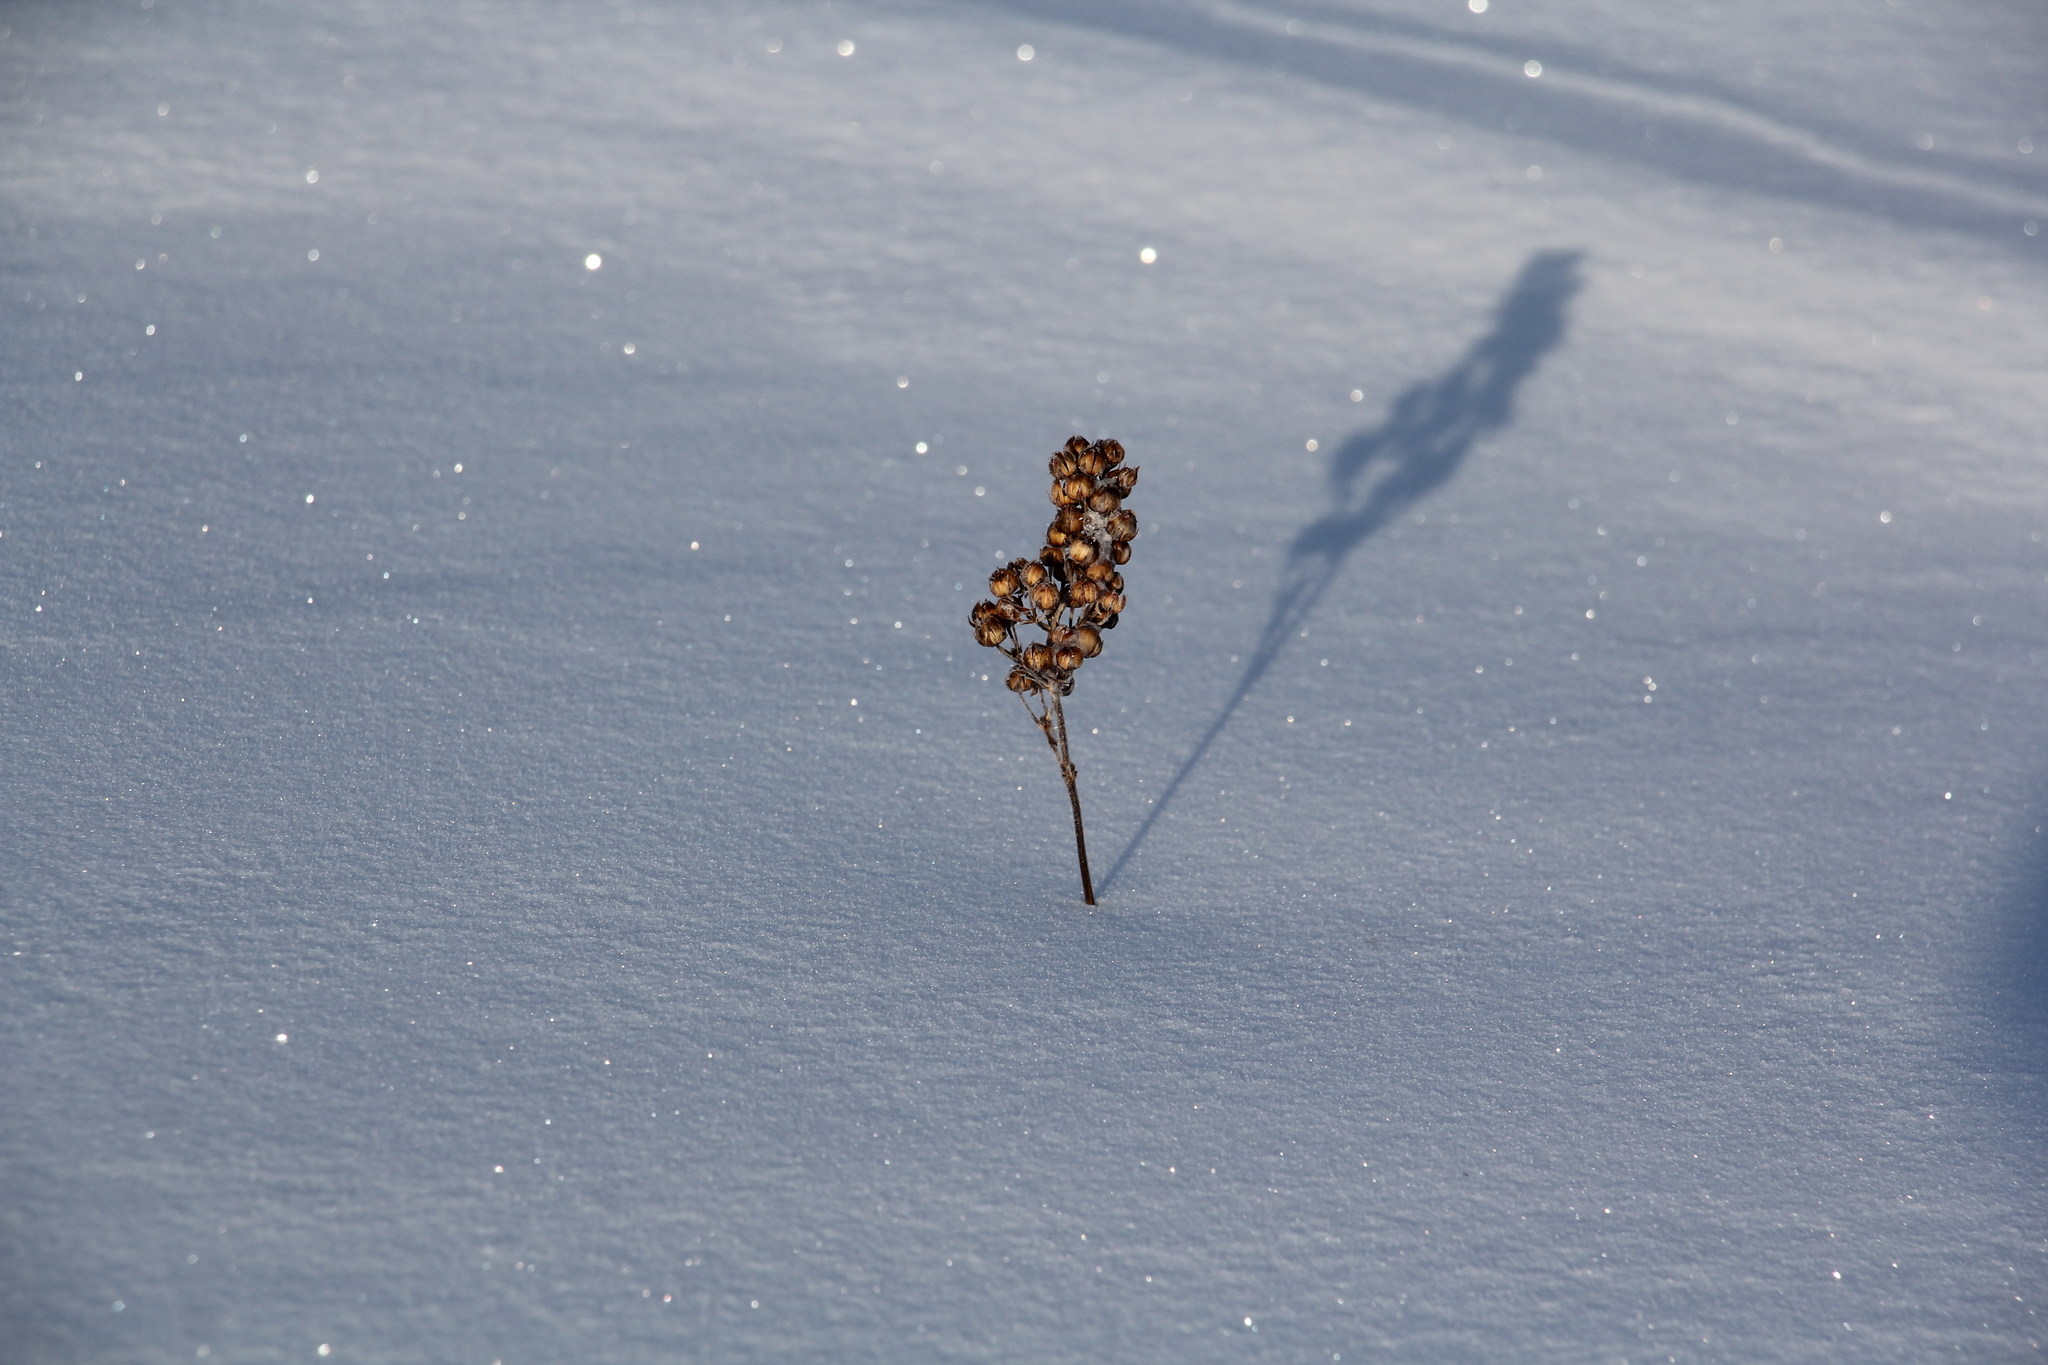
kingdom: Plantae
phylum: Tracheophyta
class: Magnoliopsida
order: Ericales
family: Primulaceae
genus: Lysimachia
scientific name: Lysimachia vulgaris
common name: Yellow loosestrife
